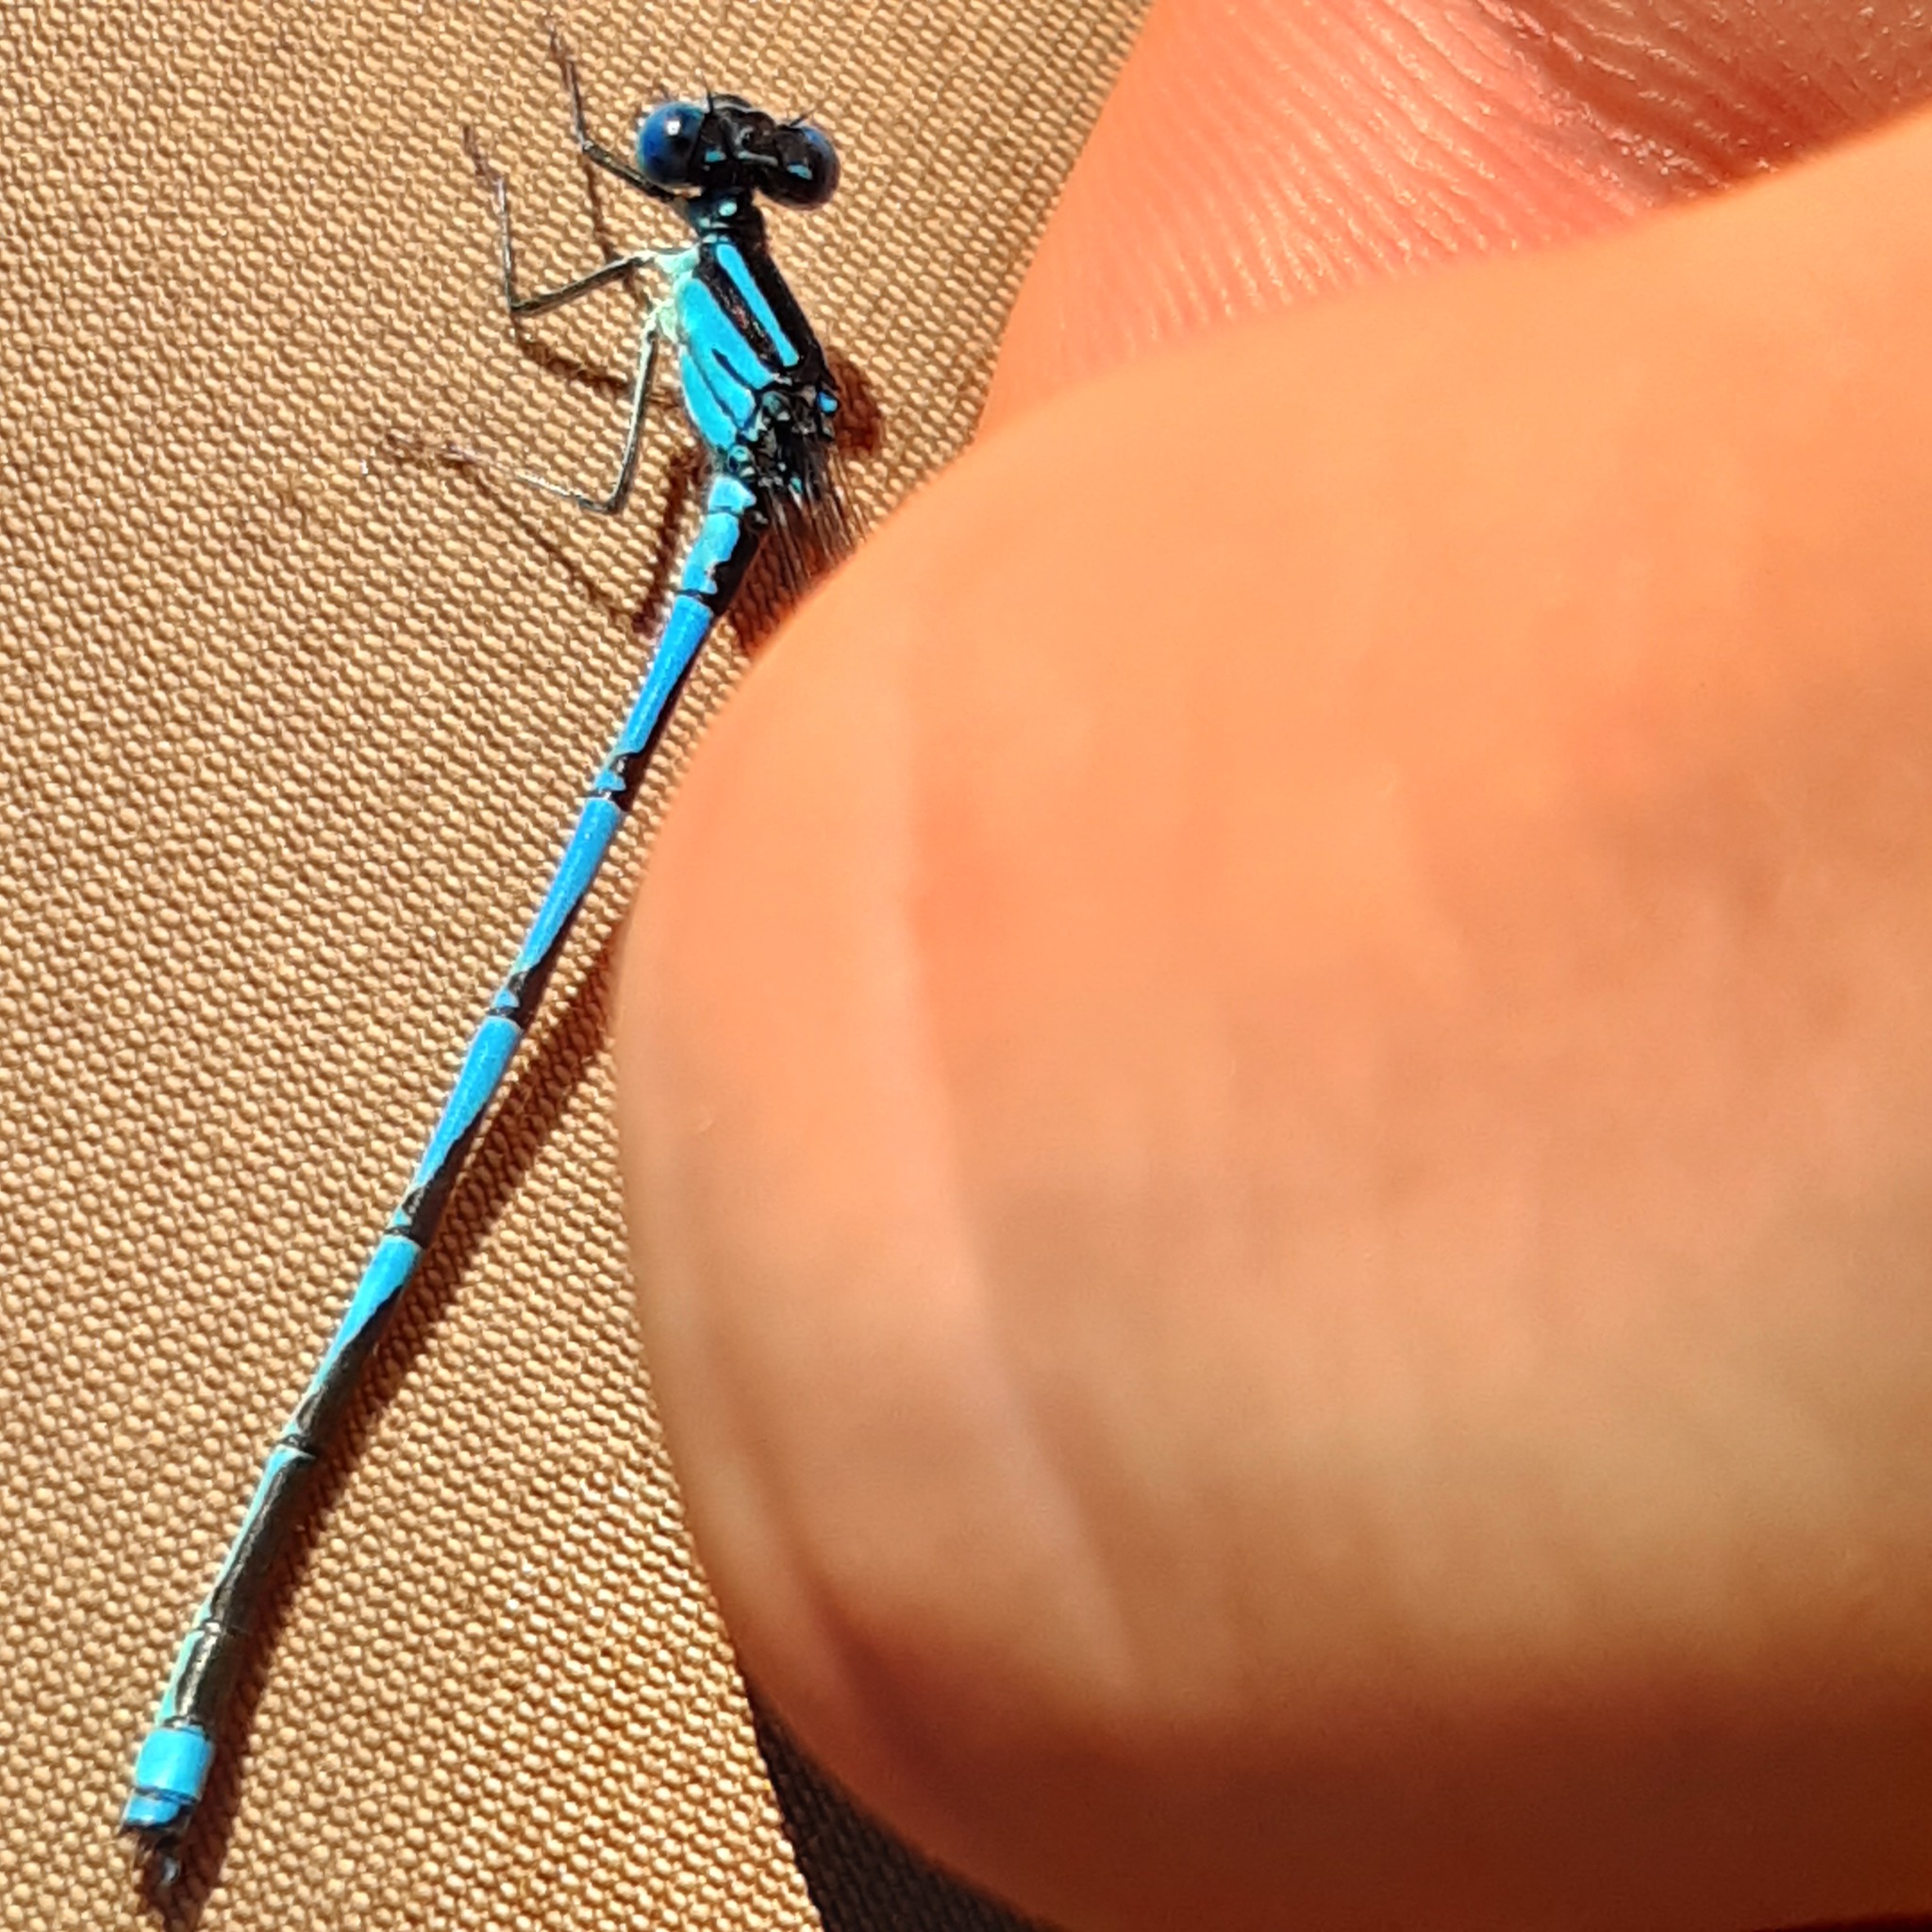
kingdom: Animalia
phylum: Arthropoda
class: Insecta
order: Odonata
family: Coenagrionidae
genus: Erythromma
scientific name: Erythromma lindenii
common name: Blue-eye
